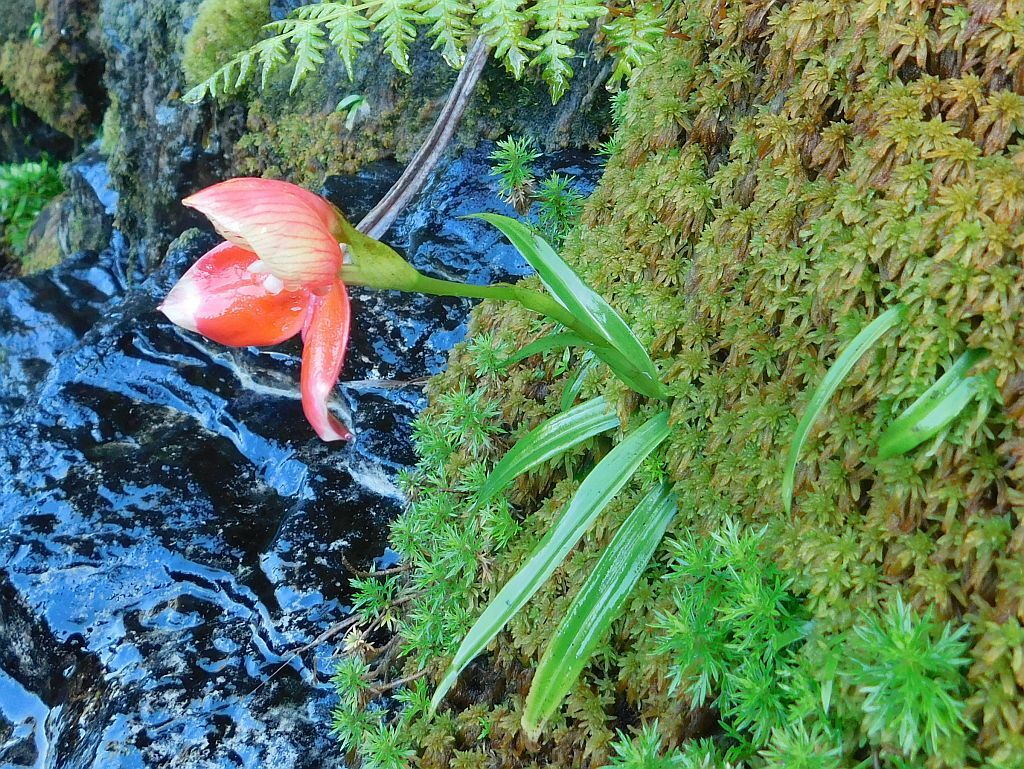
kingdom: Plantae
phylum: Tracheophyta
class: Liliopsida
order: Asparagales
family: Orchidaceae
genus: Disa
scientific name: Disa uniflora
